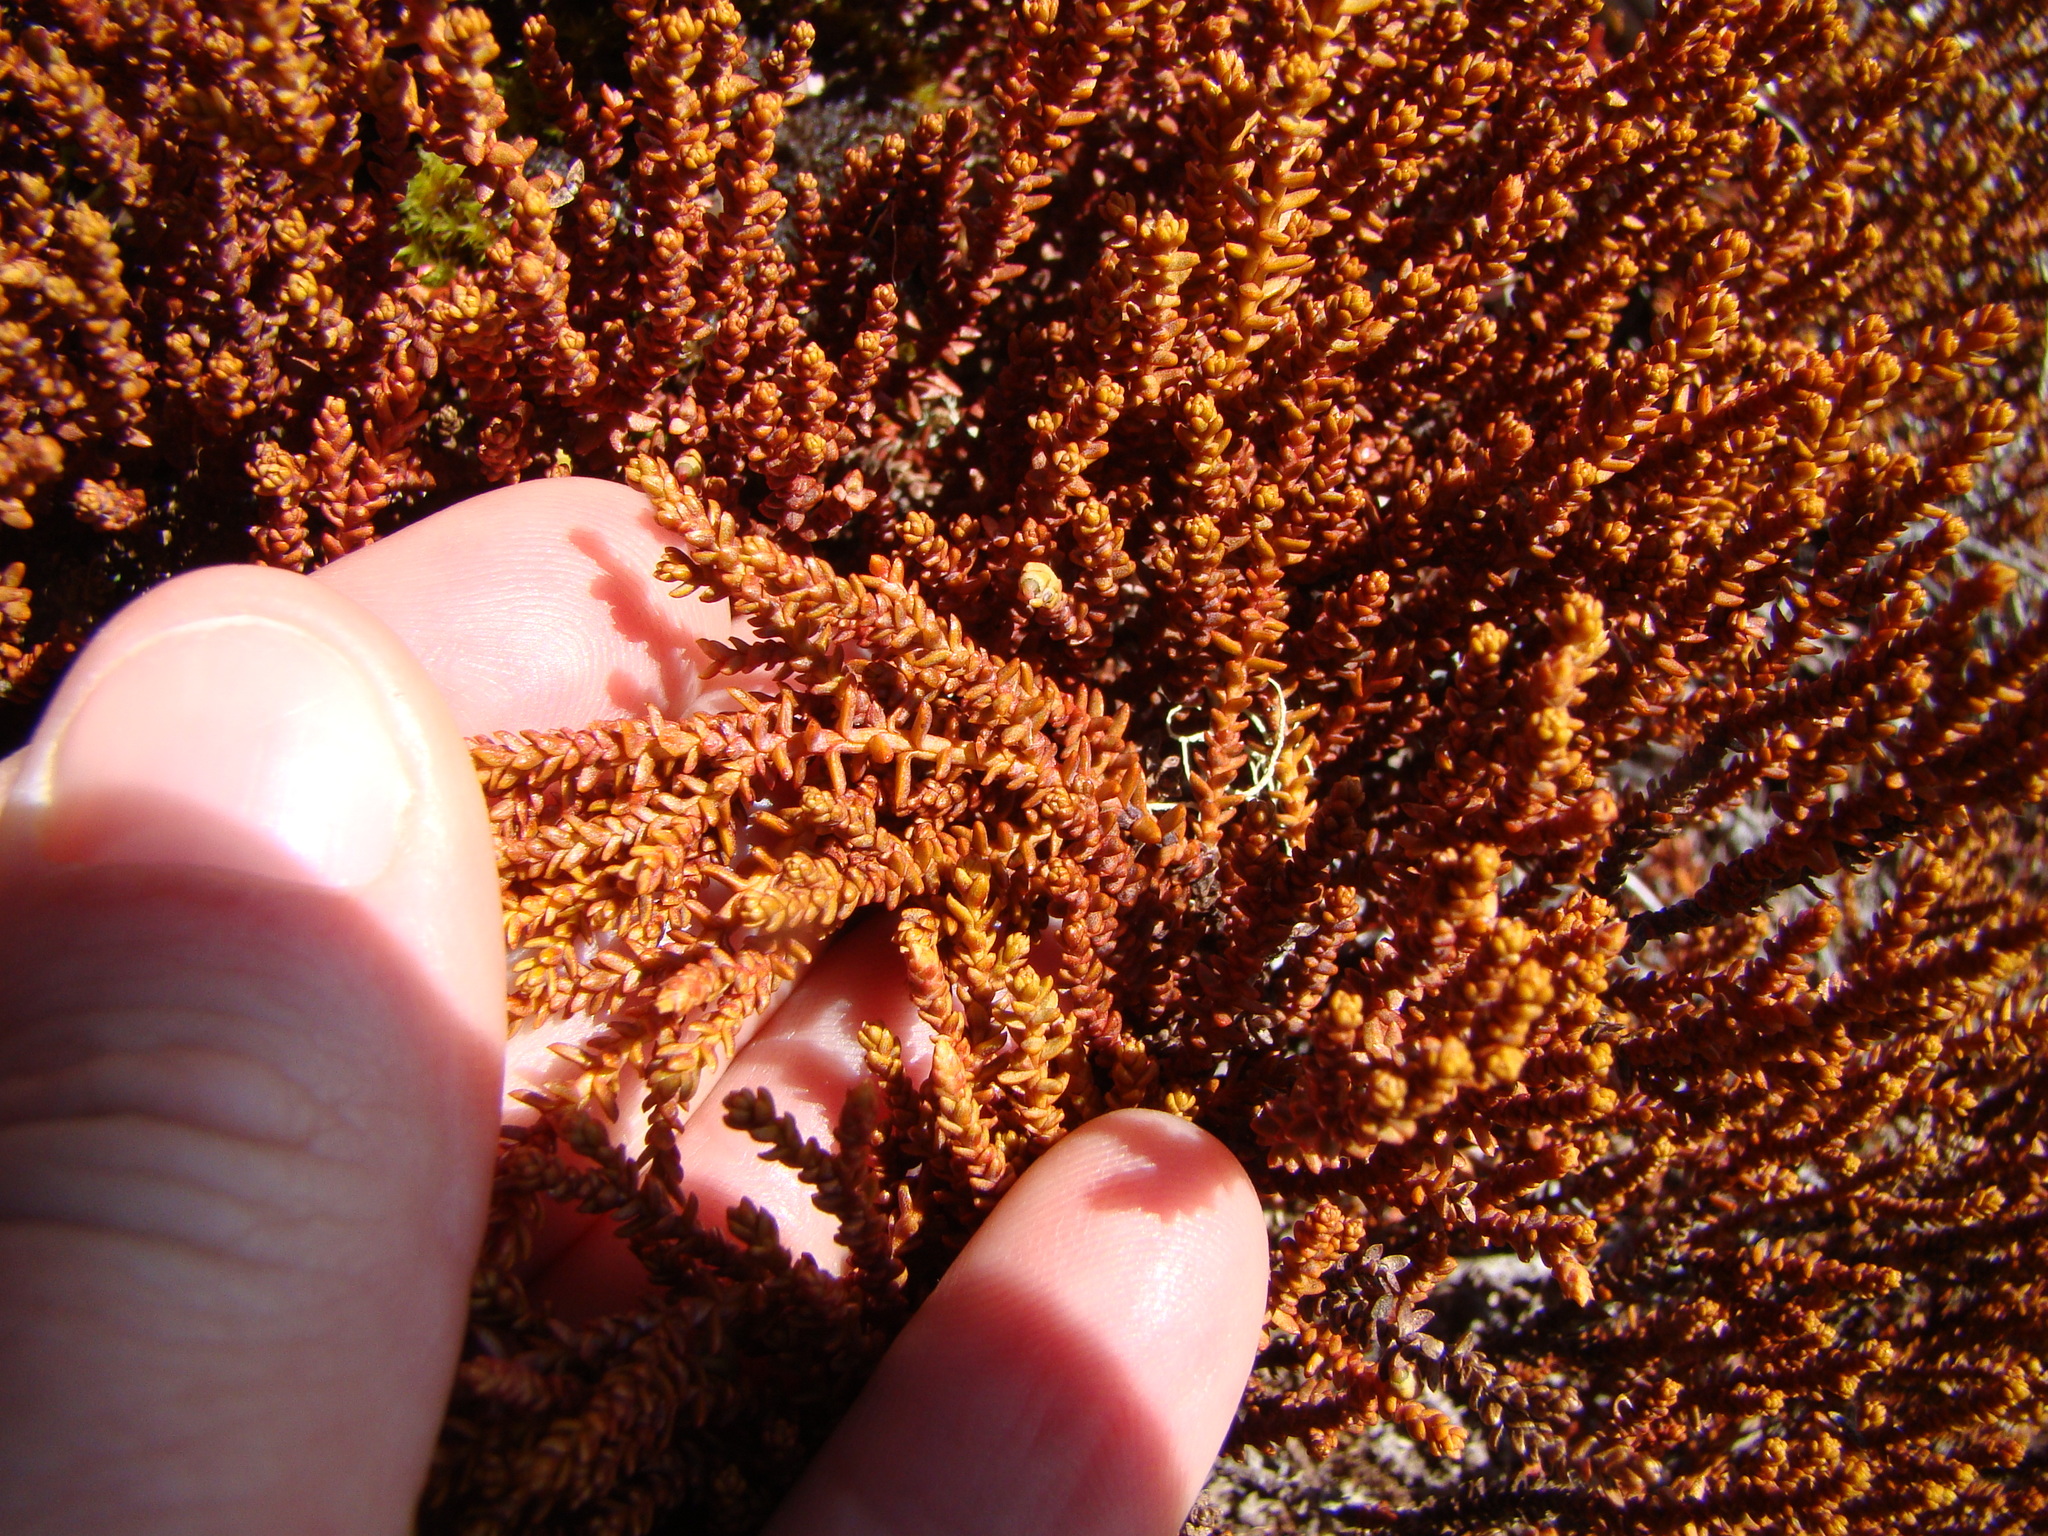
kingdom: Plantae
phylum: Tracheophyta
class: Pinopsida
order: Pinales
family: Podocarpaceae
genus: Lepidothamnus
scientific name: Lepidothamnus laxifolius
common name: Pygmy pine
